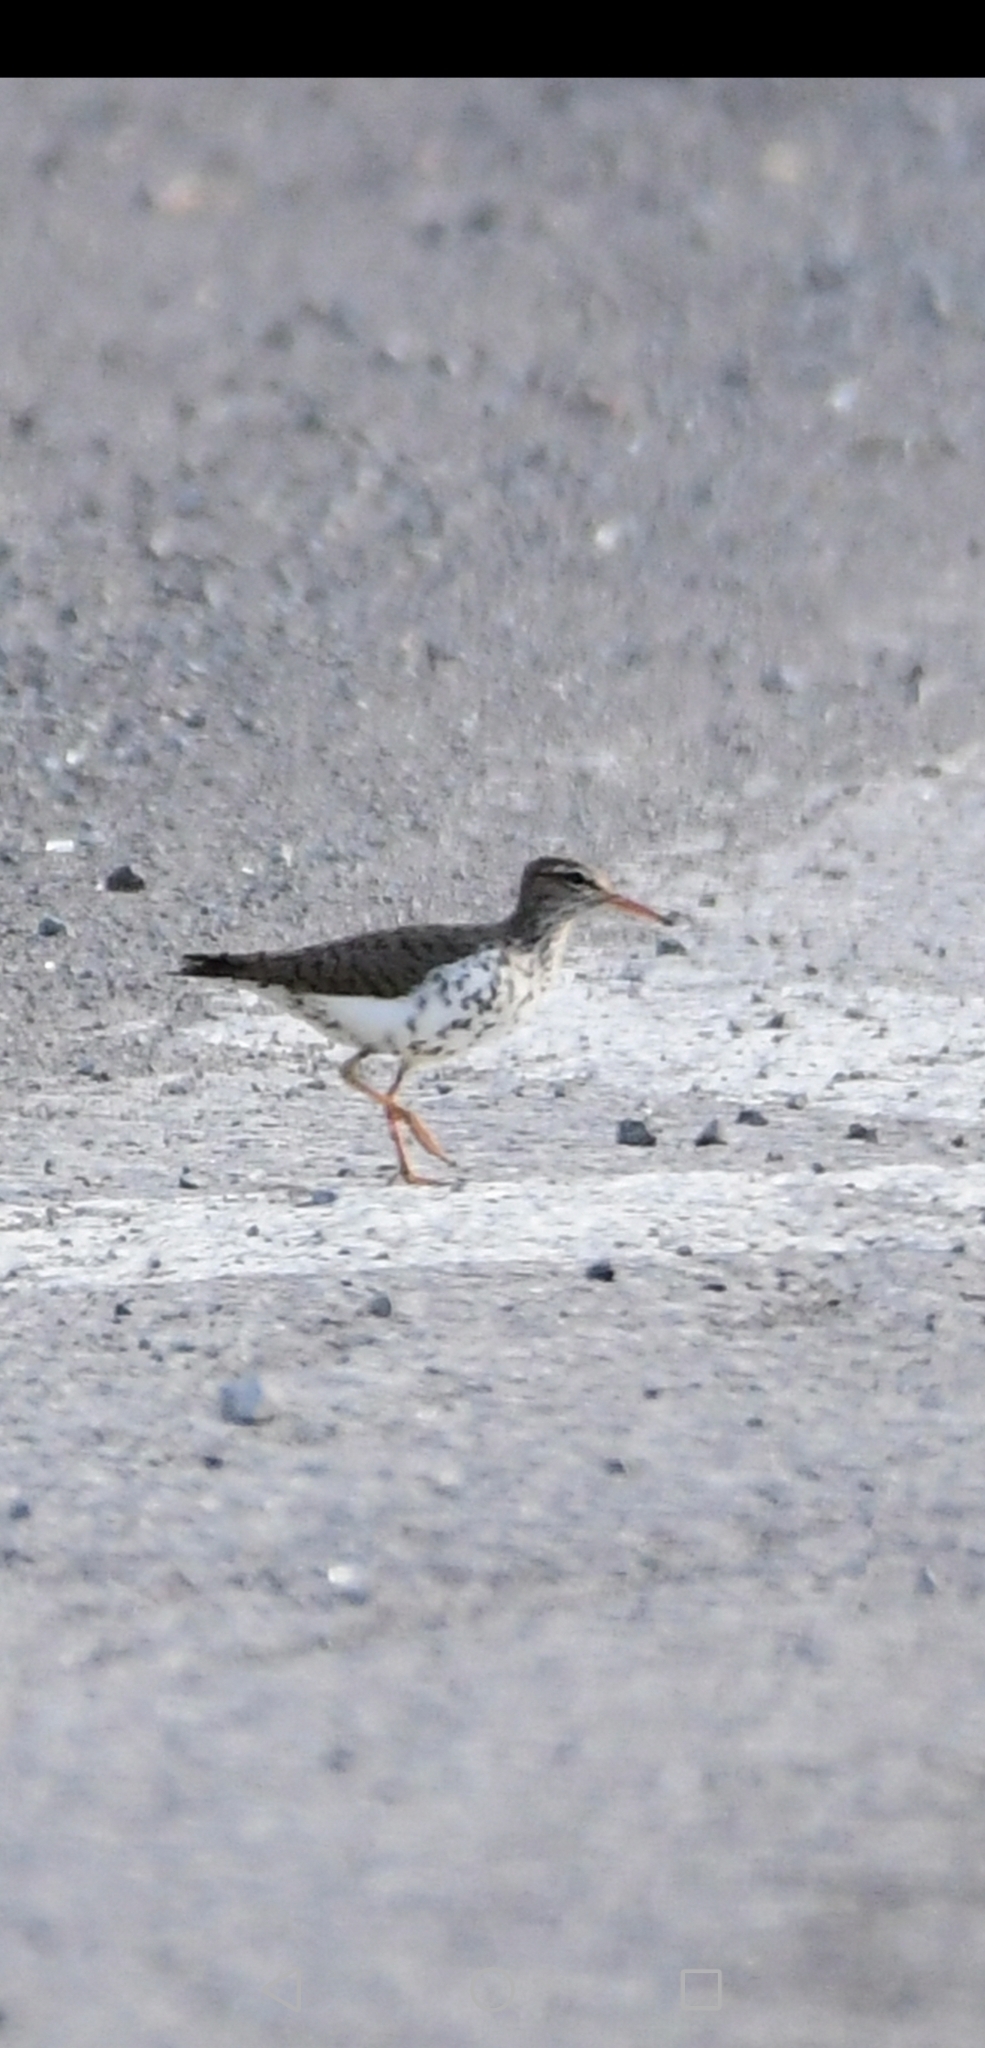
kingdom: Animalia
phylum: Chordata
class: Aves
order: Charadriiformes
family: Scolopacidae
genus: Actitis
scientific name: Actitis macularius
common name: Spotted sandpiper
